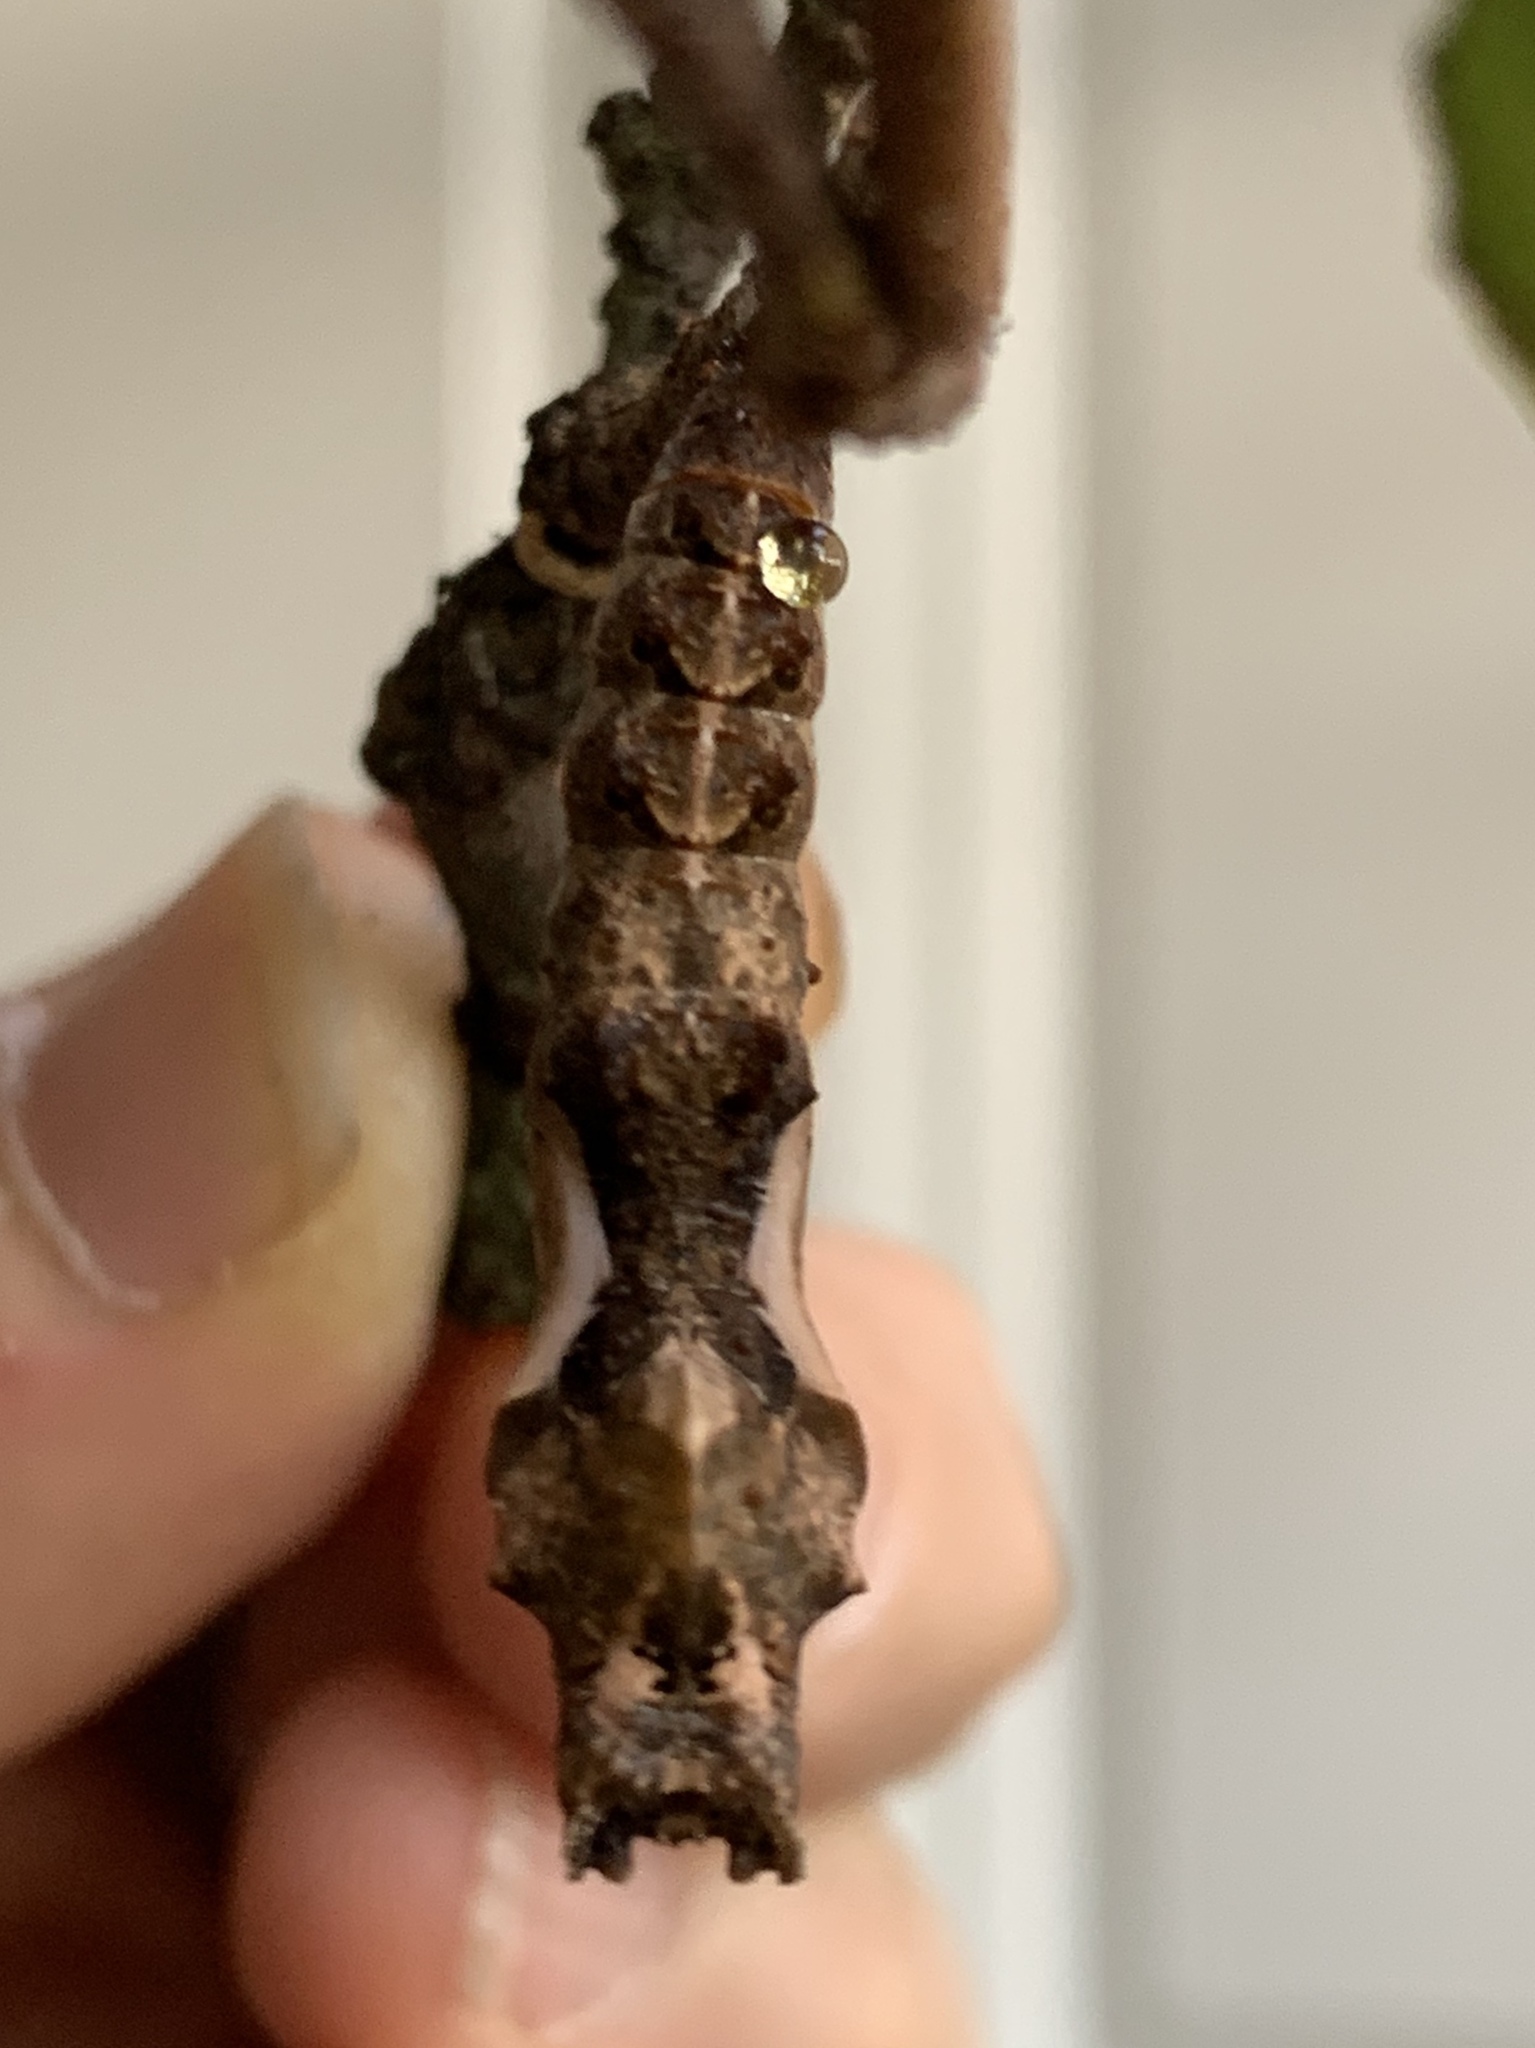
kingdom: Animalia
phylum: Arthropoda
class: Insecta
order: Lepidoptera
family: Nymphalidae
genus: Dione
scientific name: Dione vanillae
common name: Gulf fritillary
